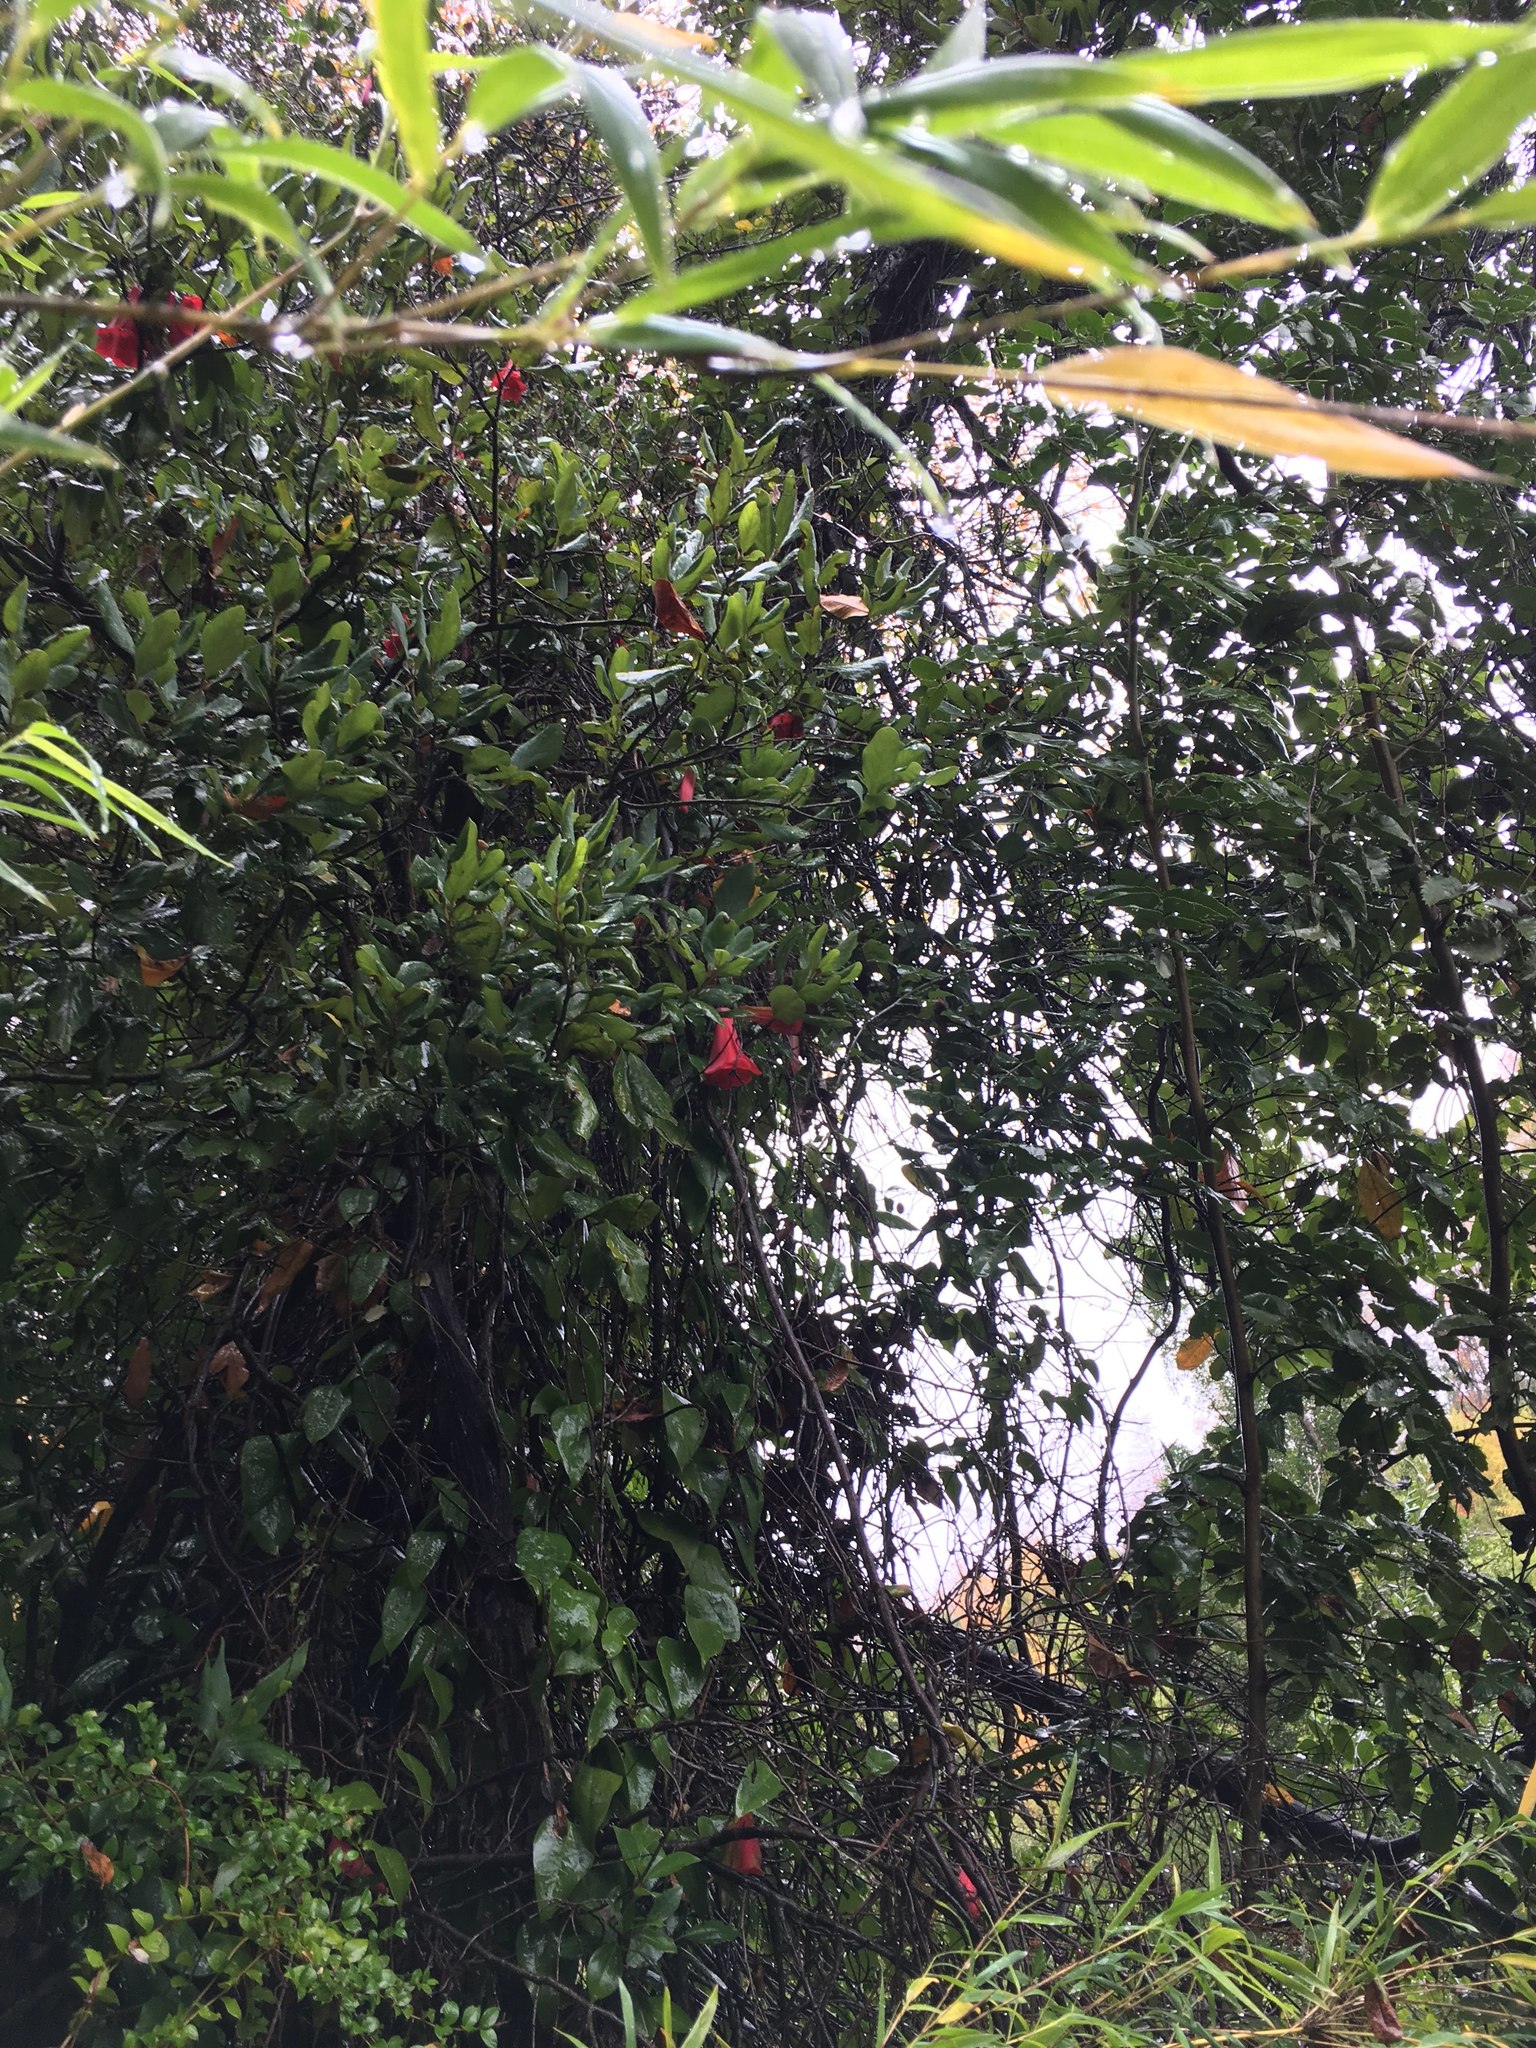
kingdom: Plantae
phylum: Tracheophyta
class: Liliopsida
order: Liliales
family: Philesiaceae
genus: Lapageria
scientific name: Lapageria rosea
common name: Chilean-bellflower
